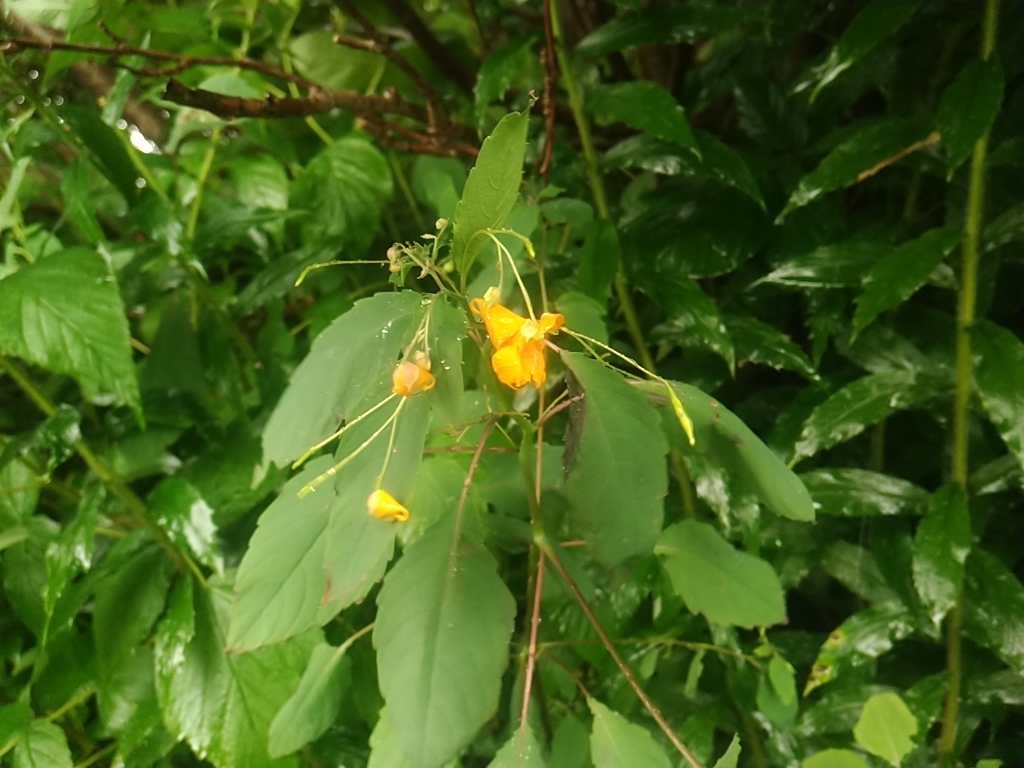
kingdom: Plantae
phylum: Tracheophyta
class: Magnoliopsida
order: Ericales
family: Balsaminaceae
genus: Impatiens
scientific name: Impatiens capensis
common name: Orange balsam
